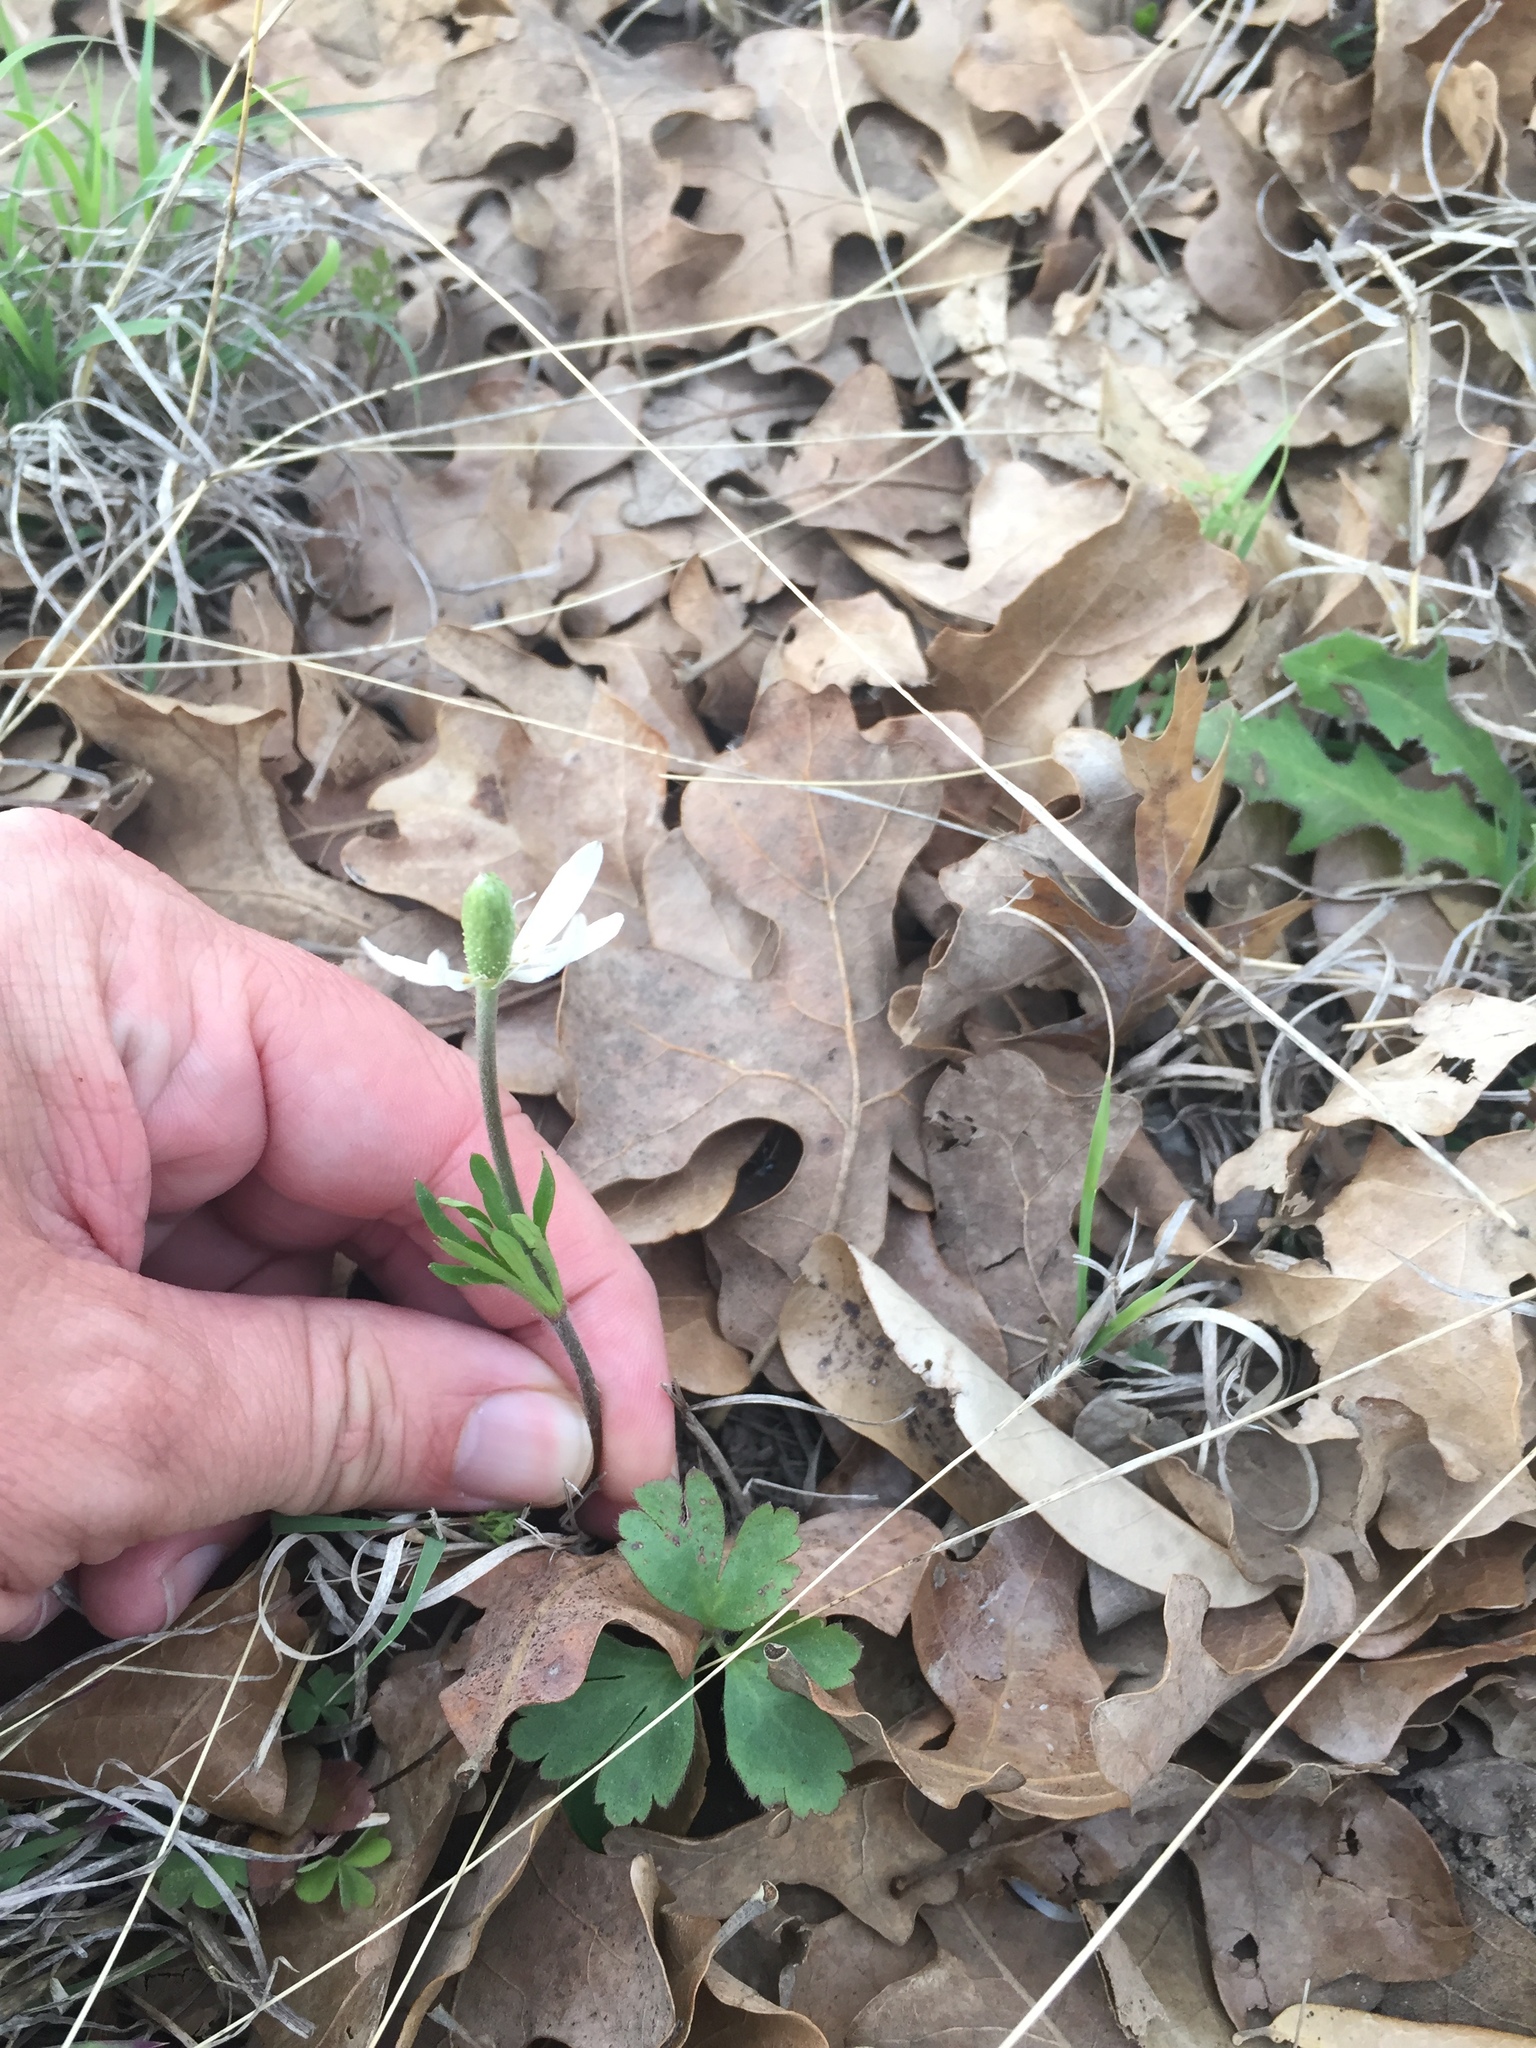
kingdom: Plantae
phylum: Tracheophyta
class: Magnoliopsida
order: Ranunculales
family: Ranunculaceae
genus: Anemone
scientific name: Anemone berlandieri
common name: Ten-petal anemone
